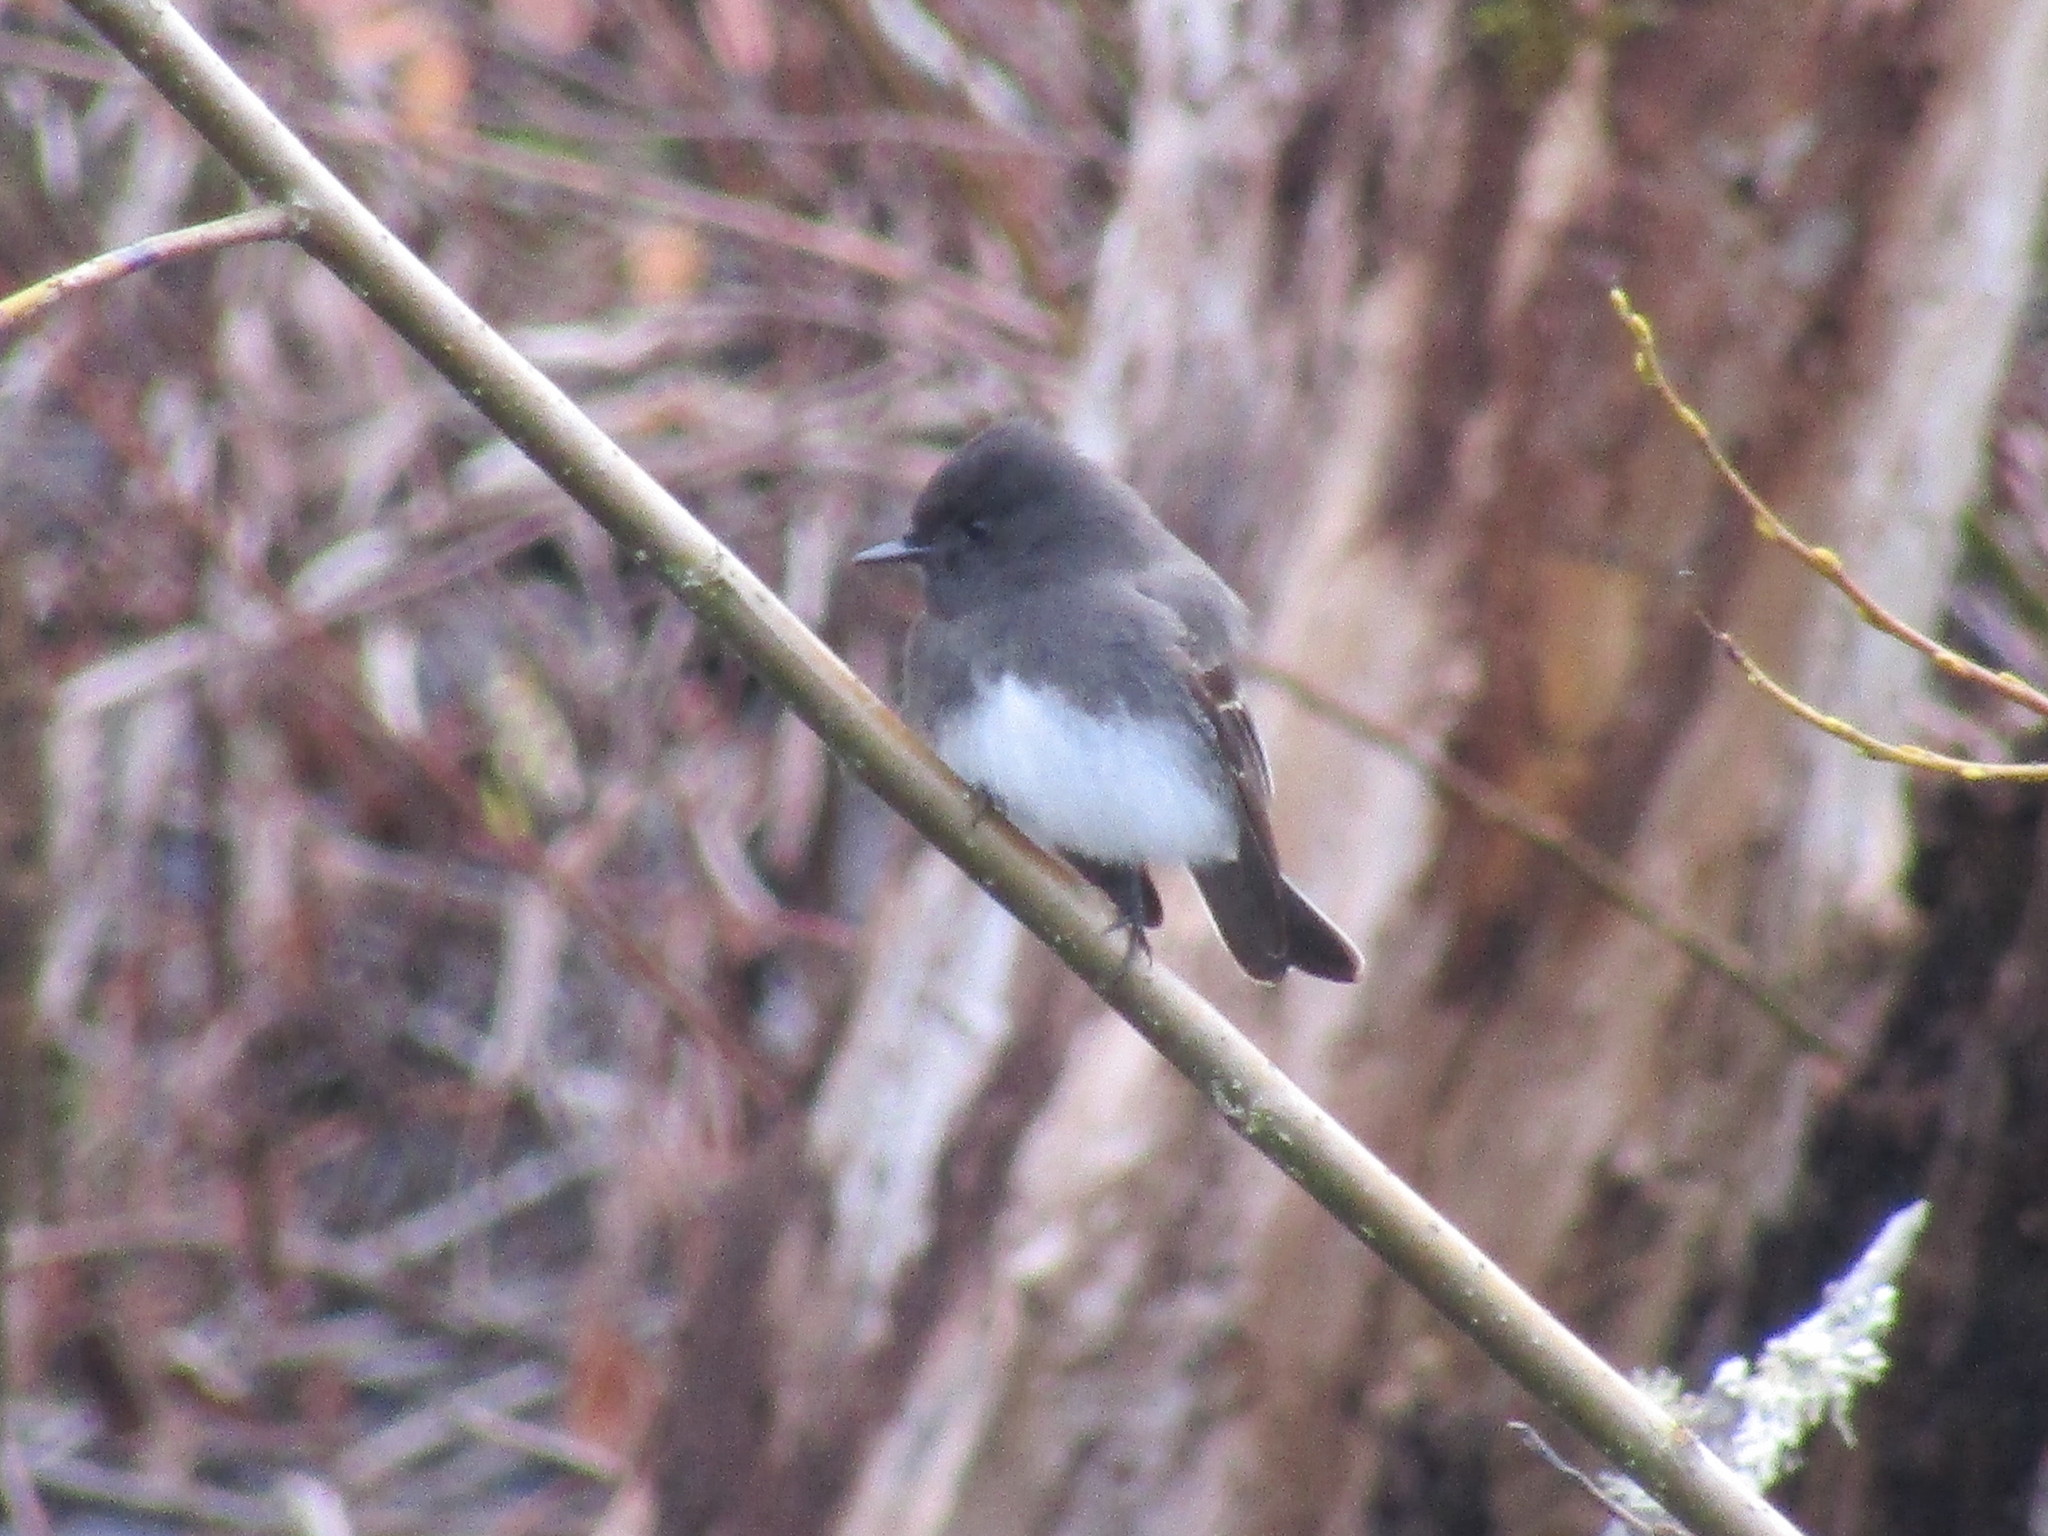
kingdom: Animalia
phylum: Chordata
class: Aves
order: Passeriformes
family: Tyrannidae
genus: Sayornis
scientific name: Sayornis nigricans
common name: Black phoebe
